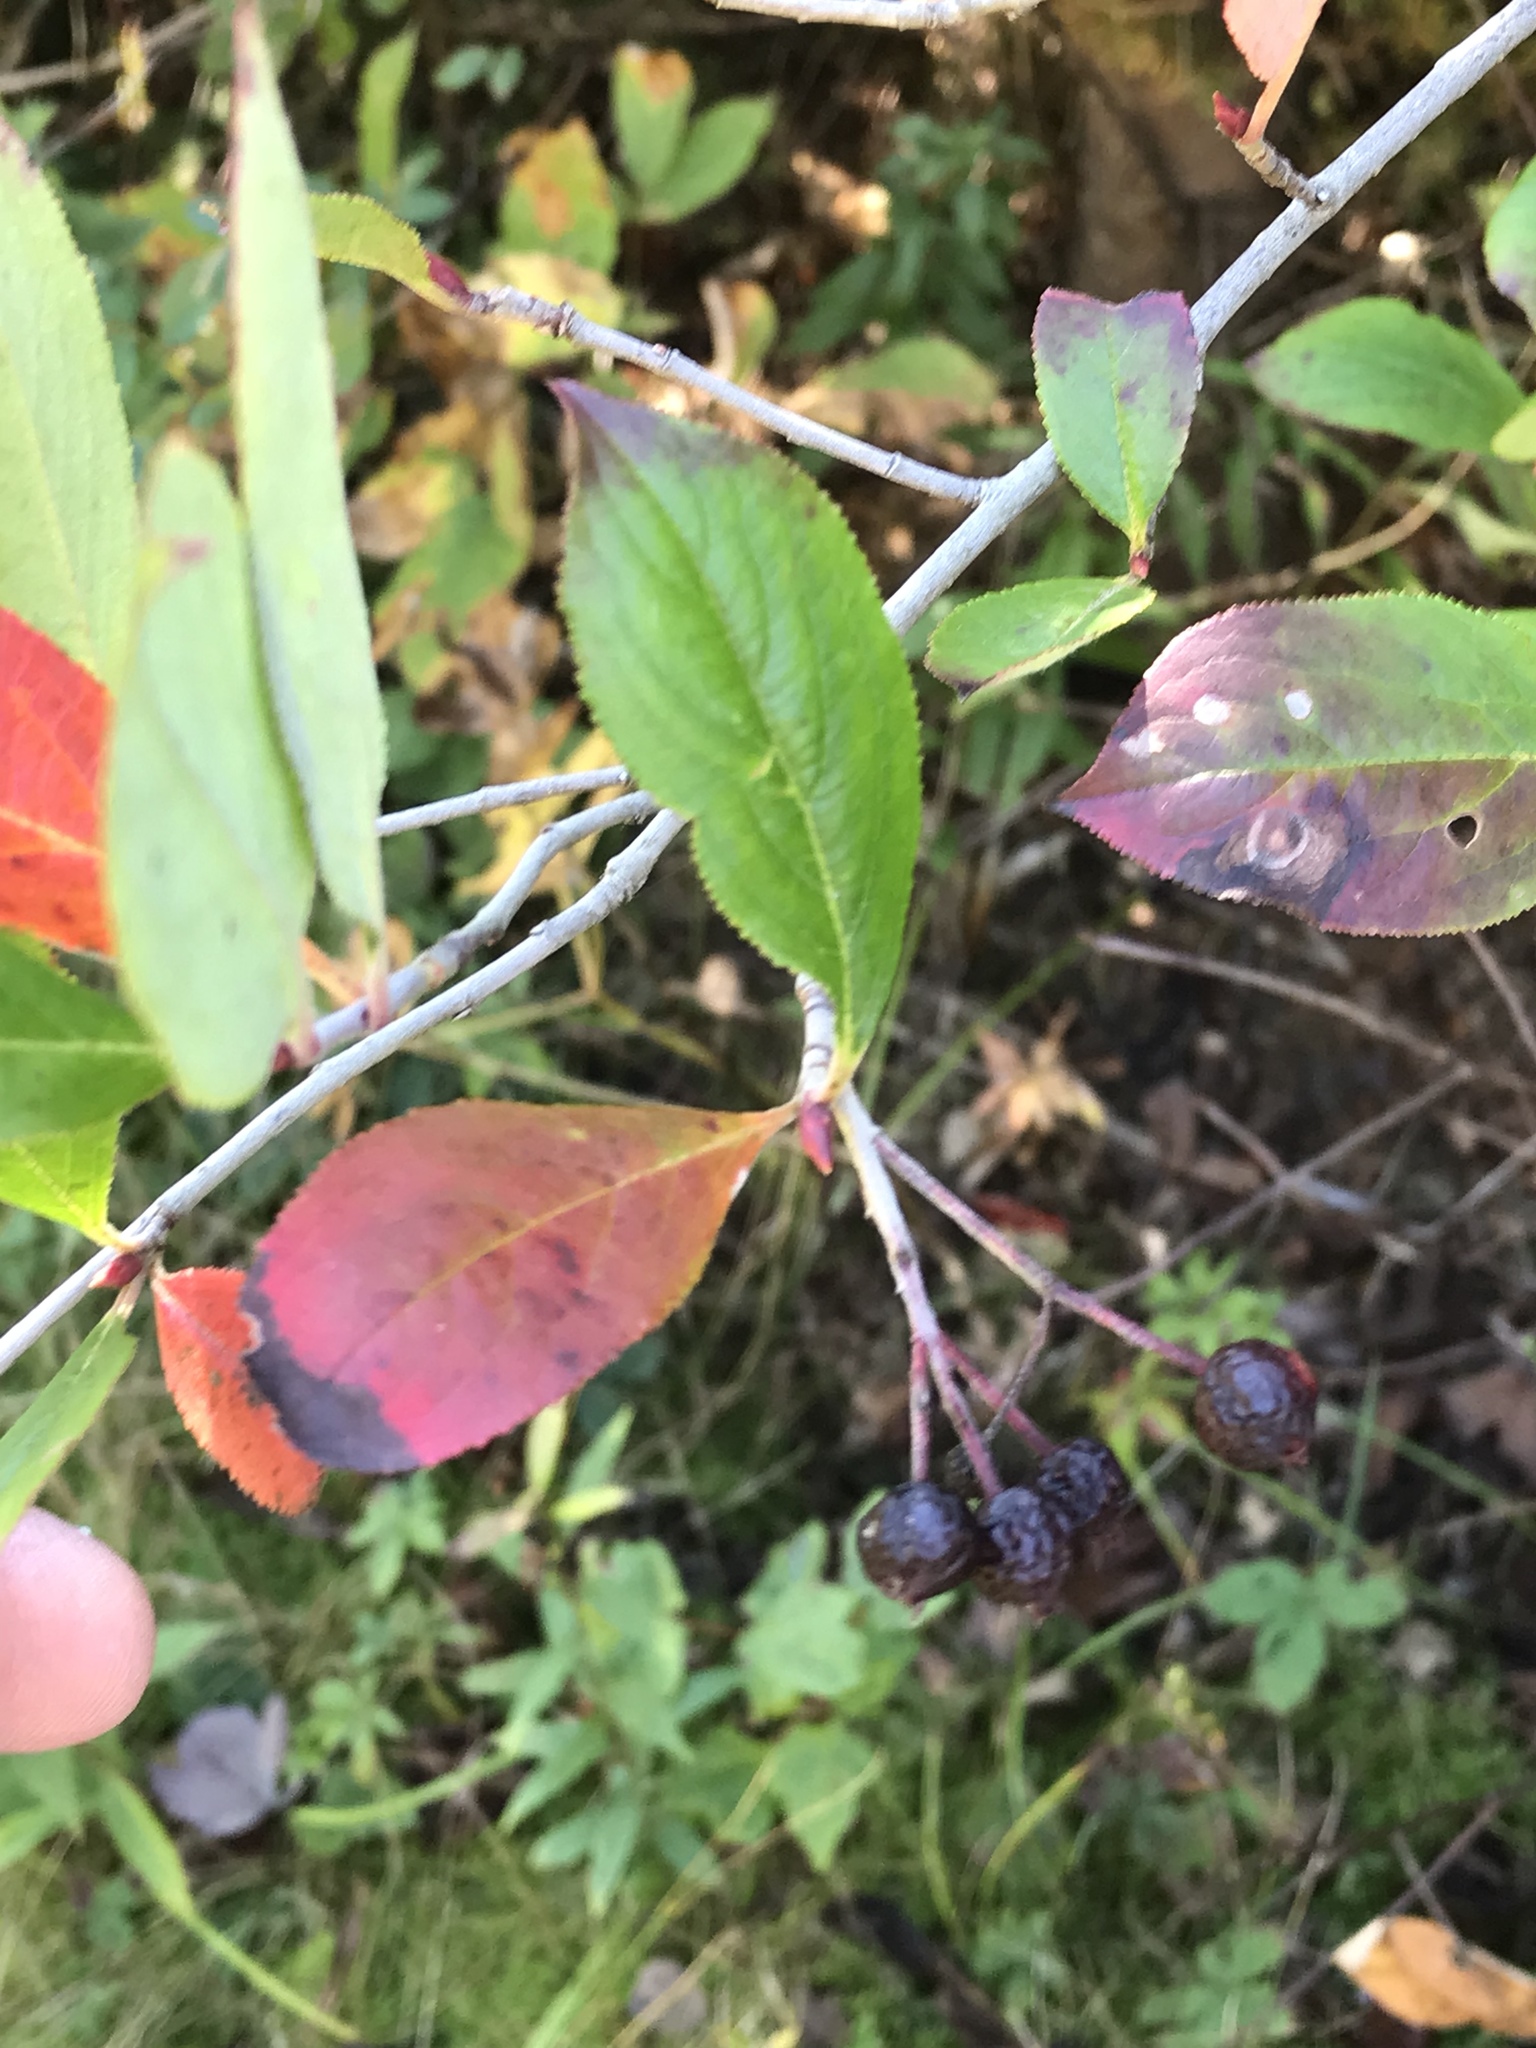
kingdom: Plantae
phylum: Tracheophyta
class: Magnoliopsida
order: Rosales
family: Rosaceae
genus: Aronia
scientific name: Aronia melanocarpa
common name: Black chokeberry
